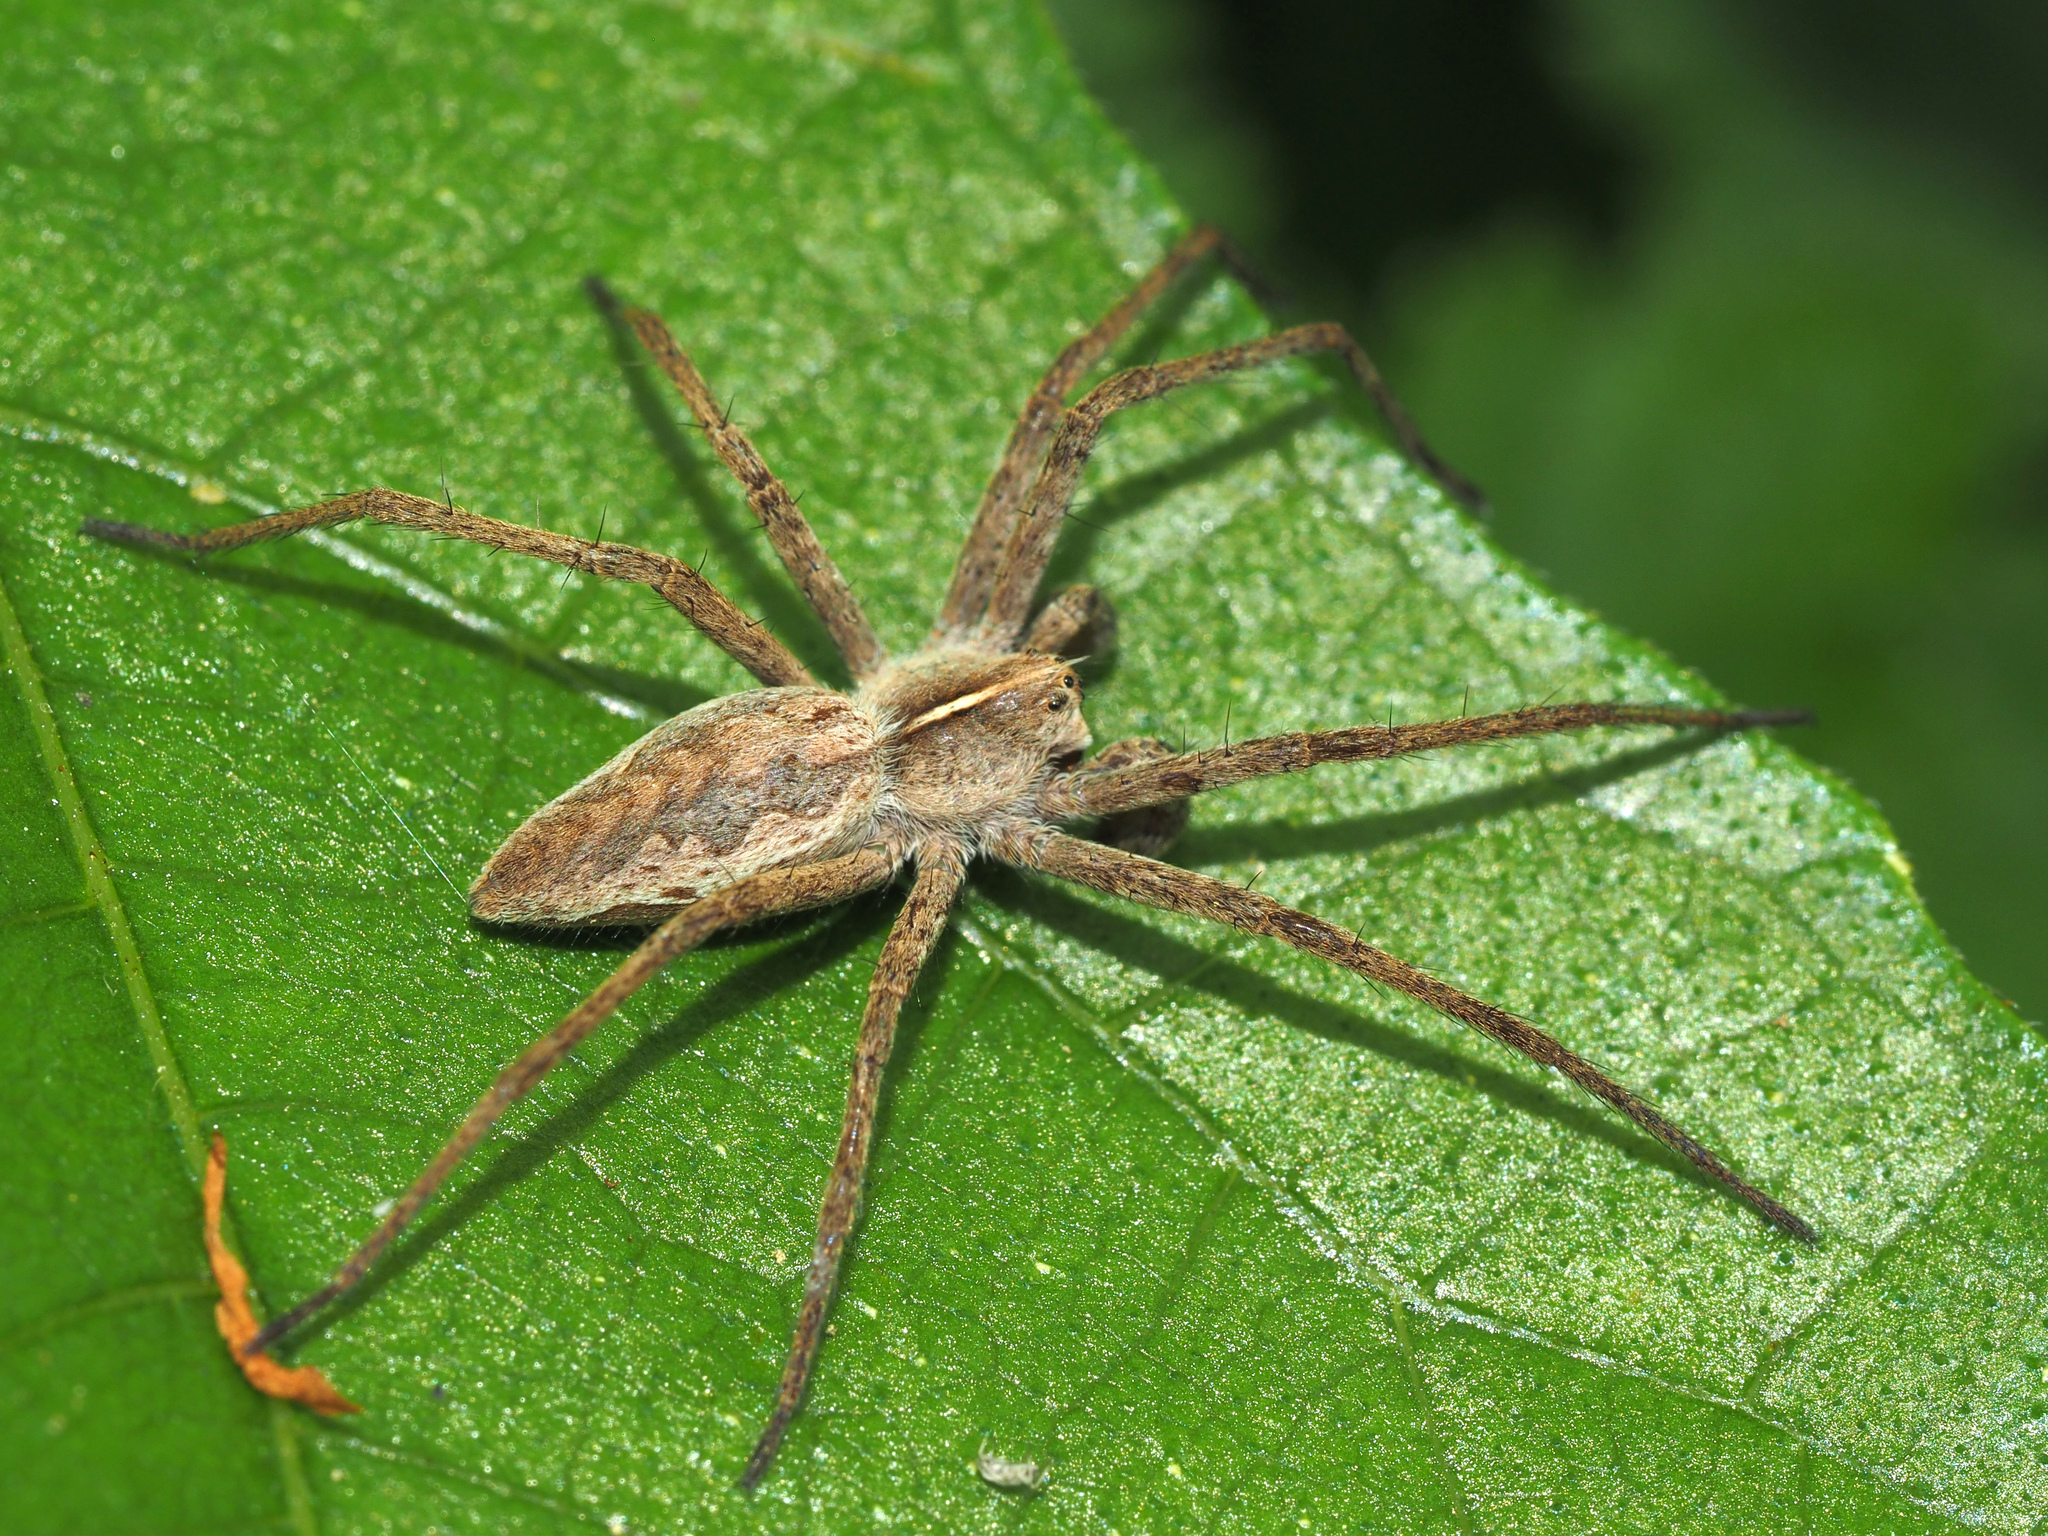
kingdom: Animalia
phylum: Arthropoda
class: Arachnida
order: Araneae
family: Pisauridae
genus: Pisaura
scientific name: Pisaura mirabilis
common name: Tent spider
